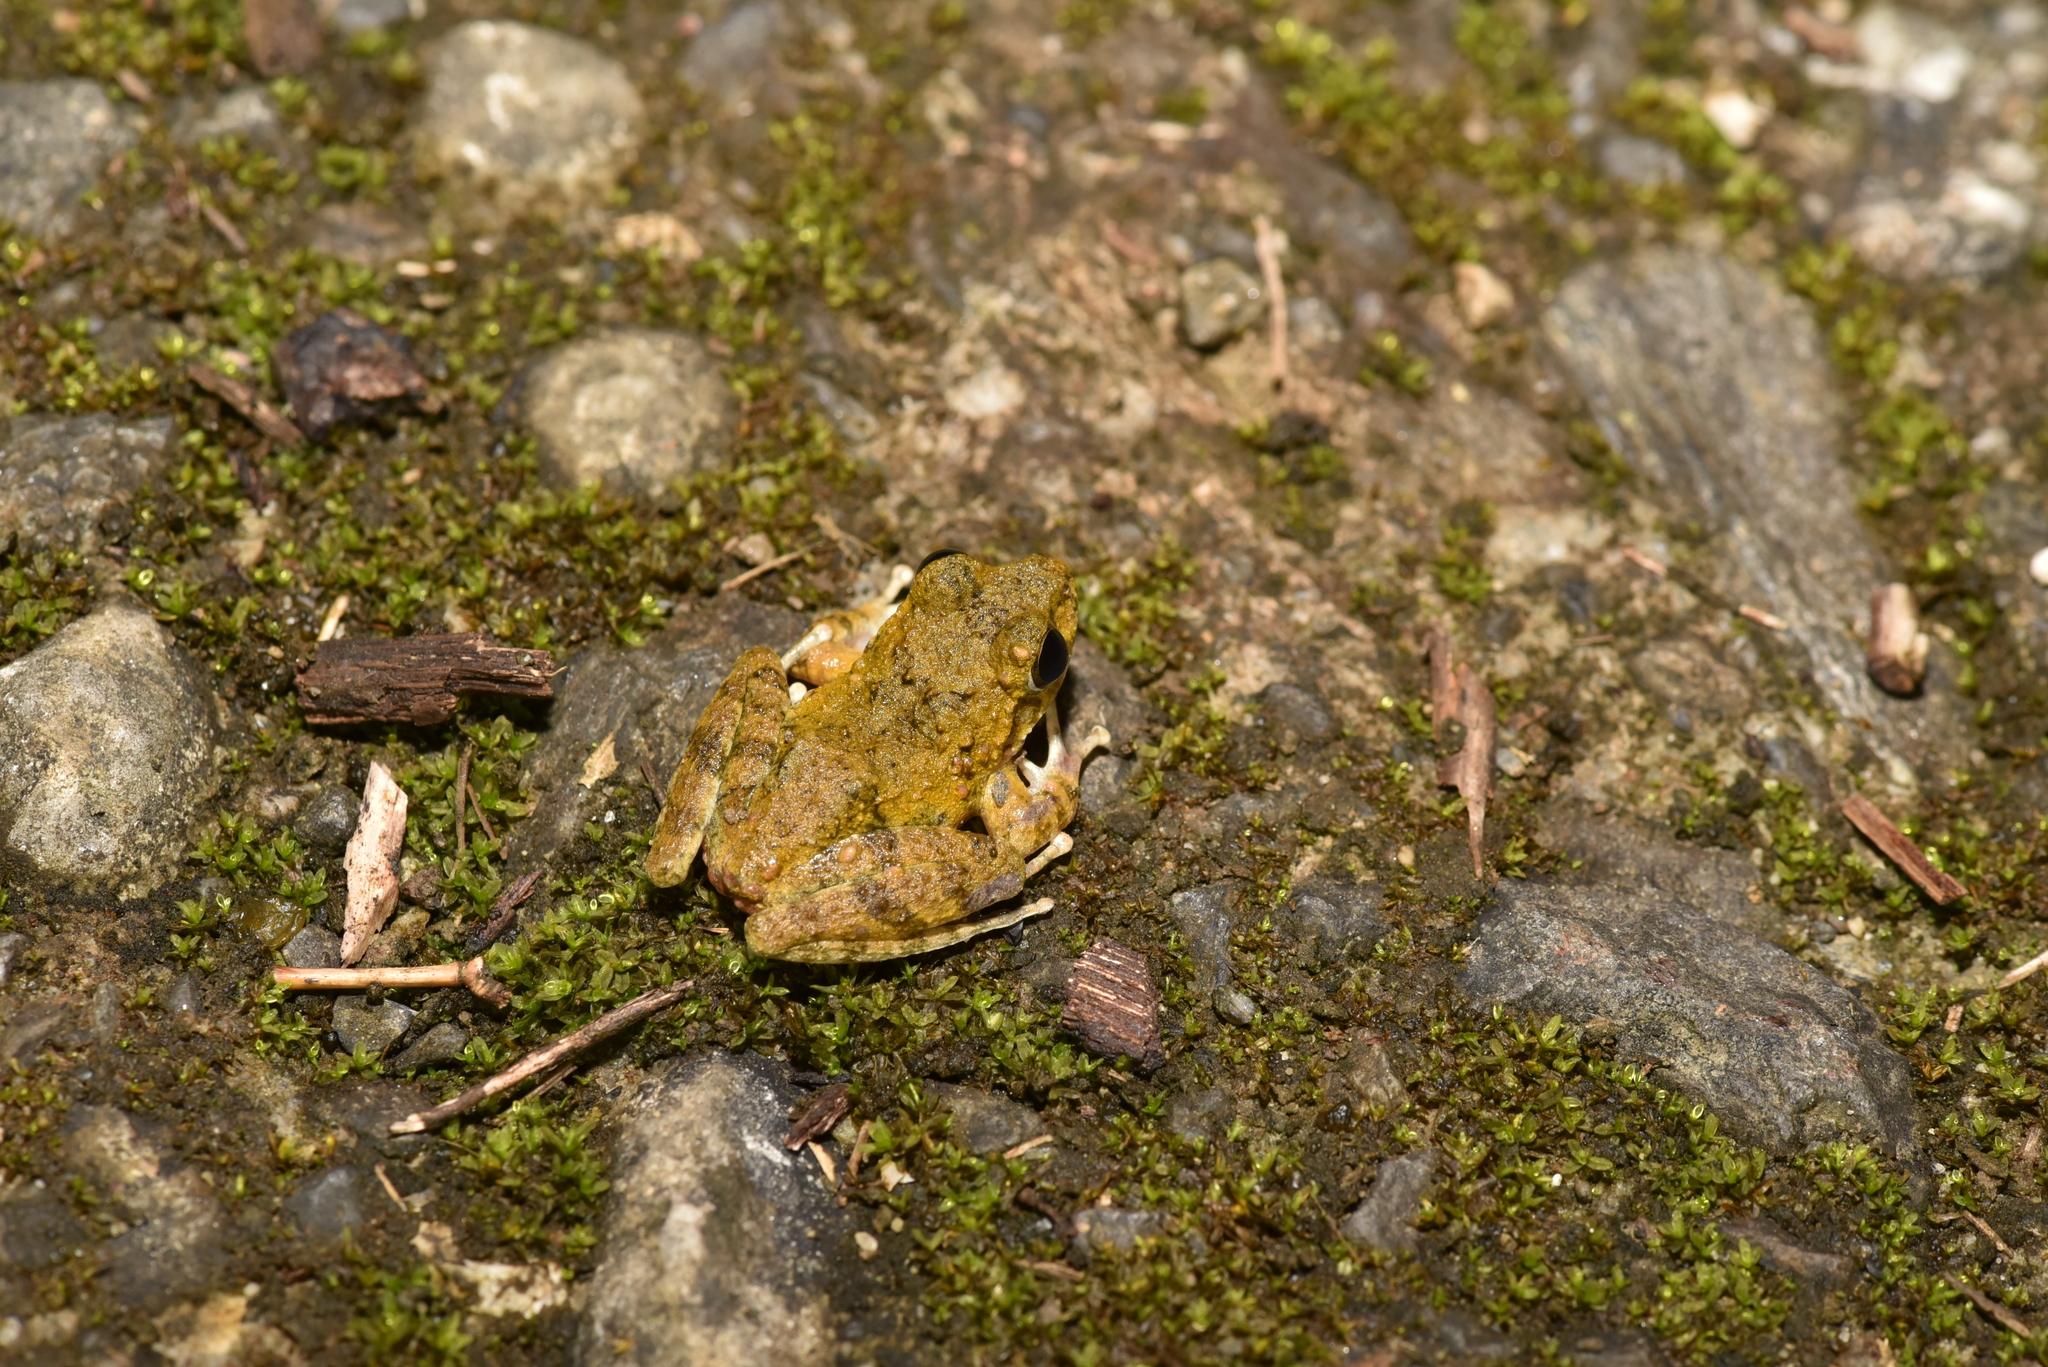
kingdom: Animalia
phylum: Chordata
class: Amphibia
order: Anura
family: Rhacophoridae
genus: Buergeria
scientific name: Buergeria otai
